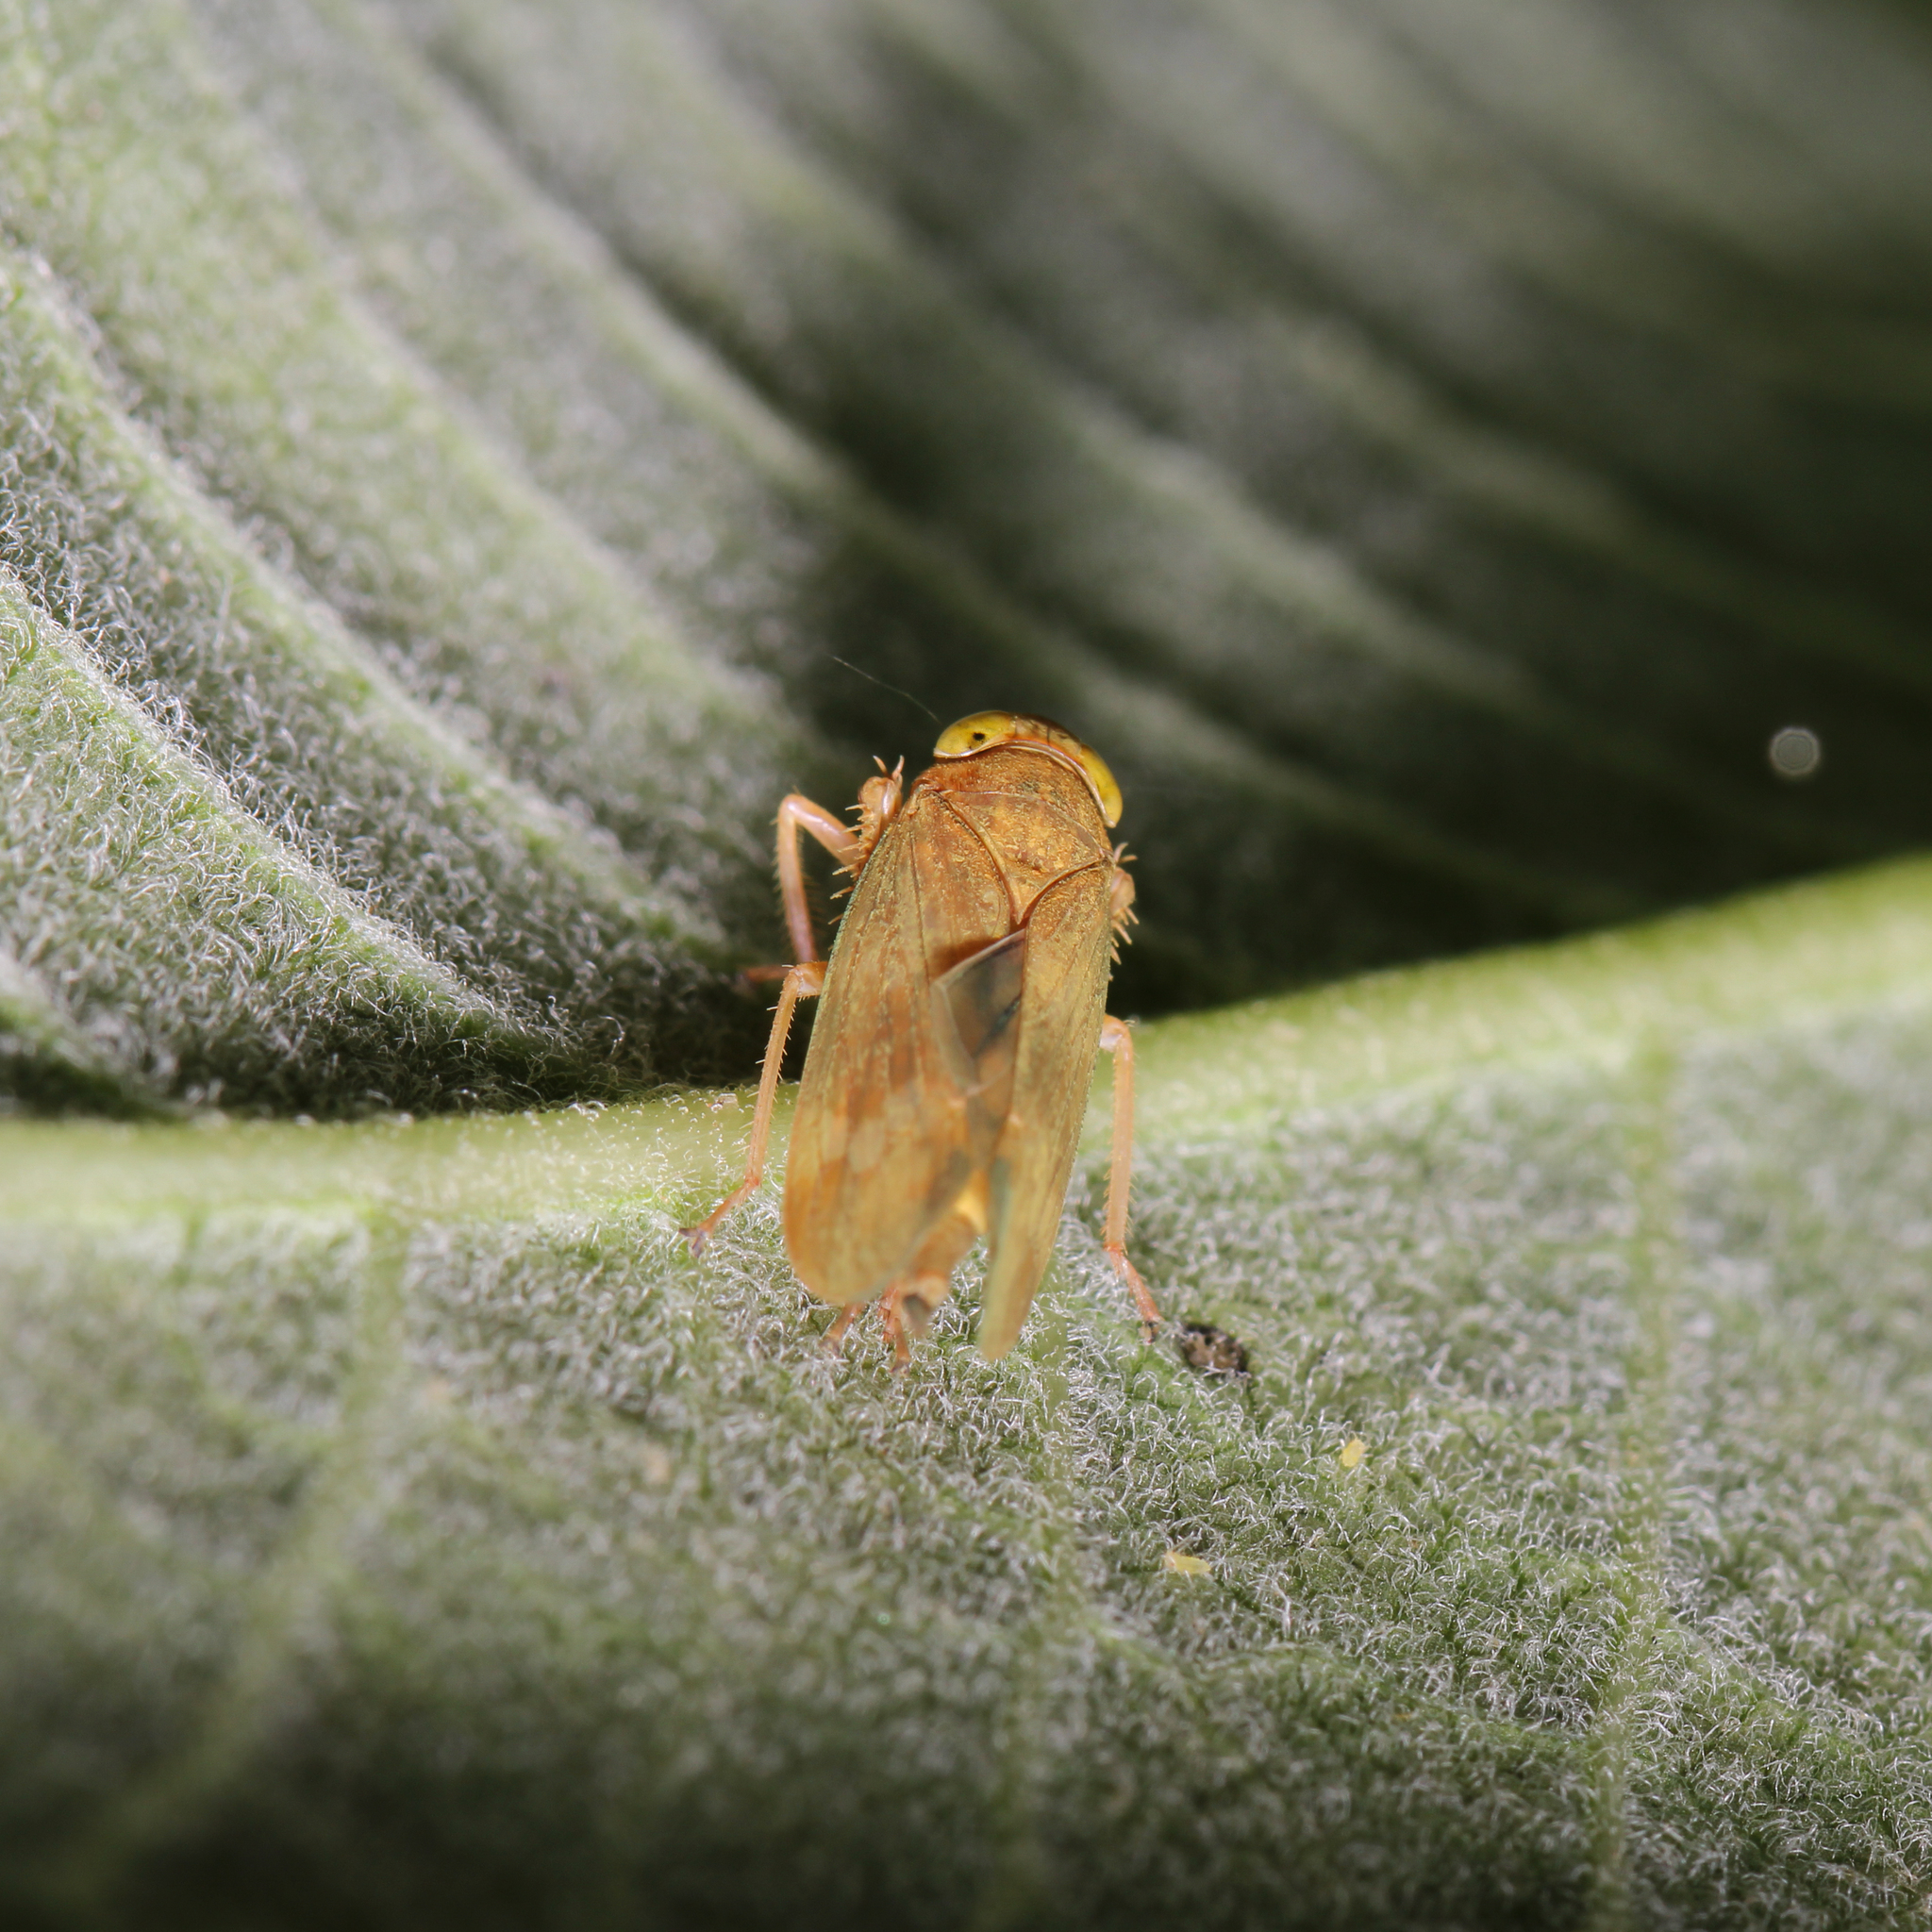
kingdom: Animalia
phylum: Arthropoda
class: Insecta
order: Hemiptera
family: Cicadellidae
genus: Jikradia
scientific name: Jikradia olitoria
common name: Coppery leafhopper
